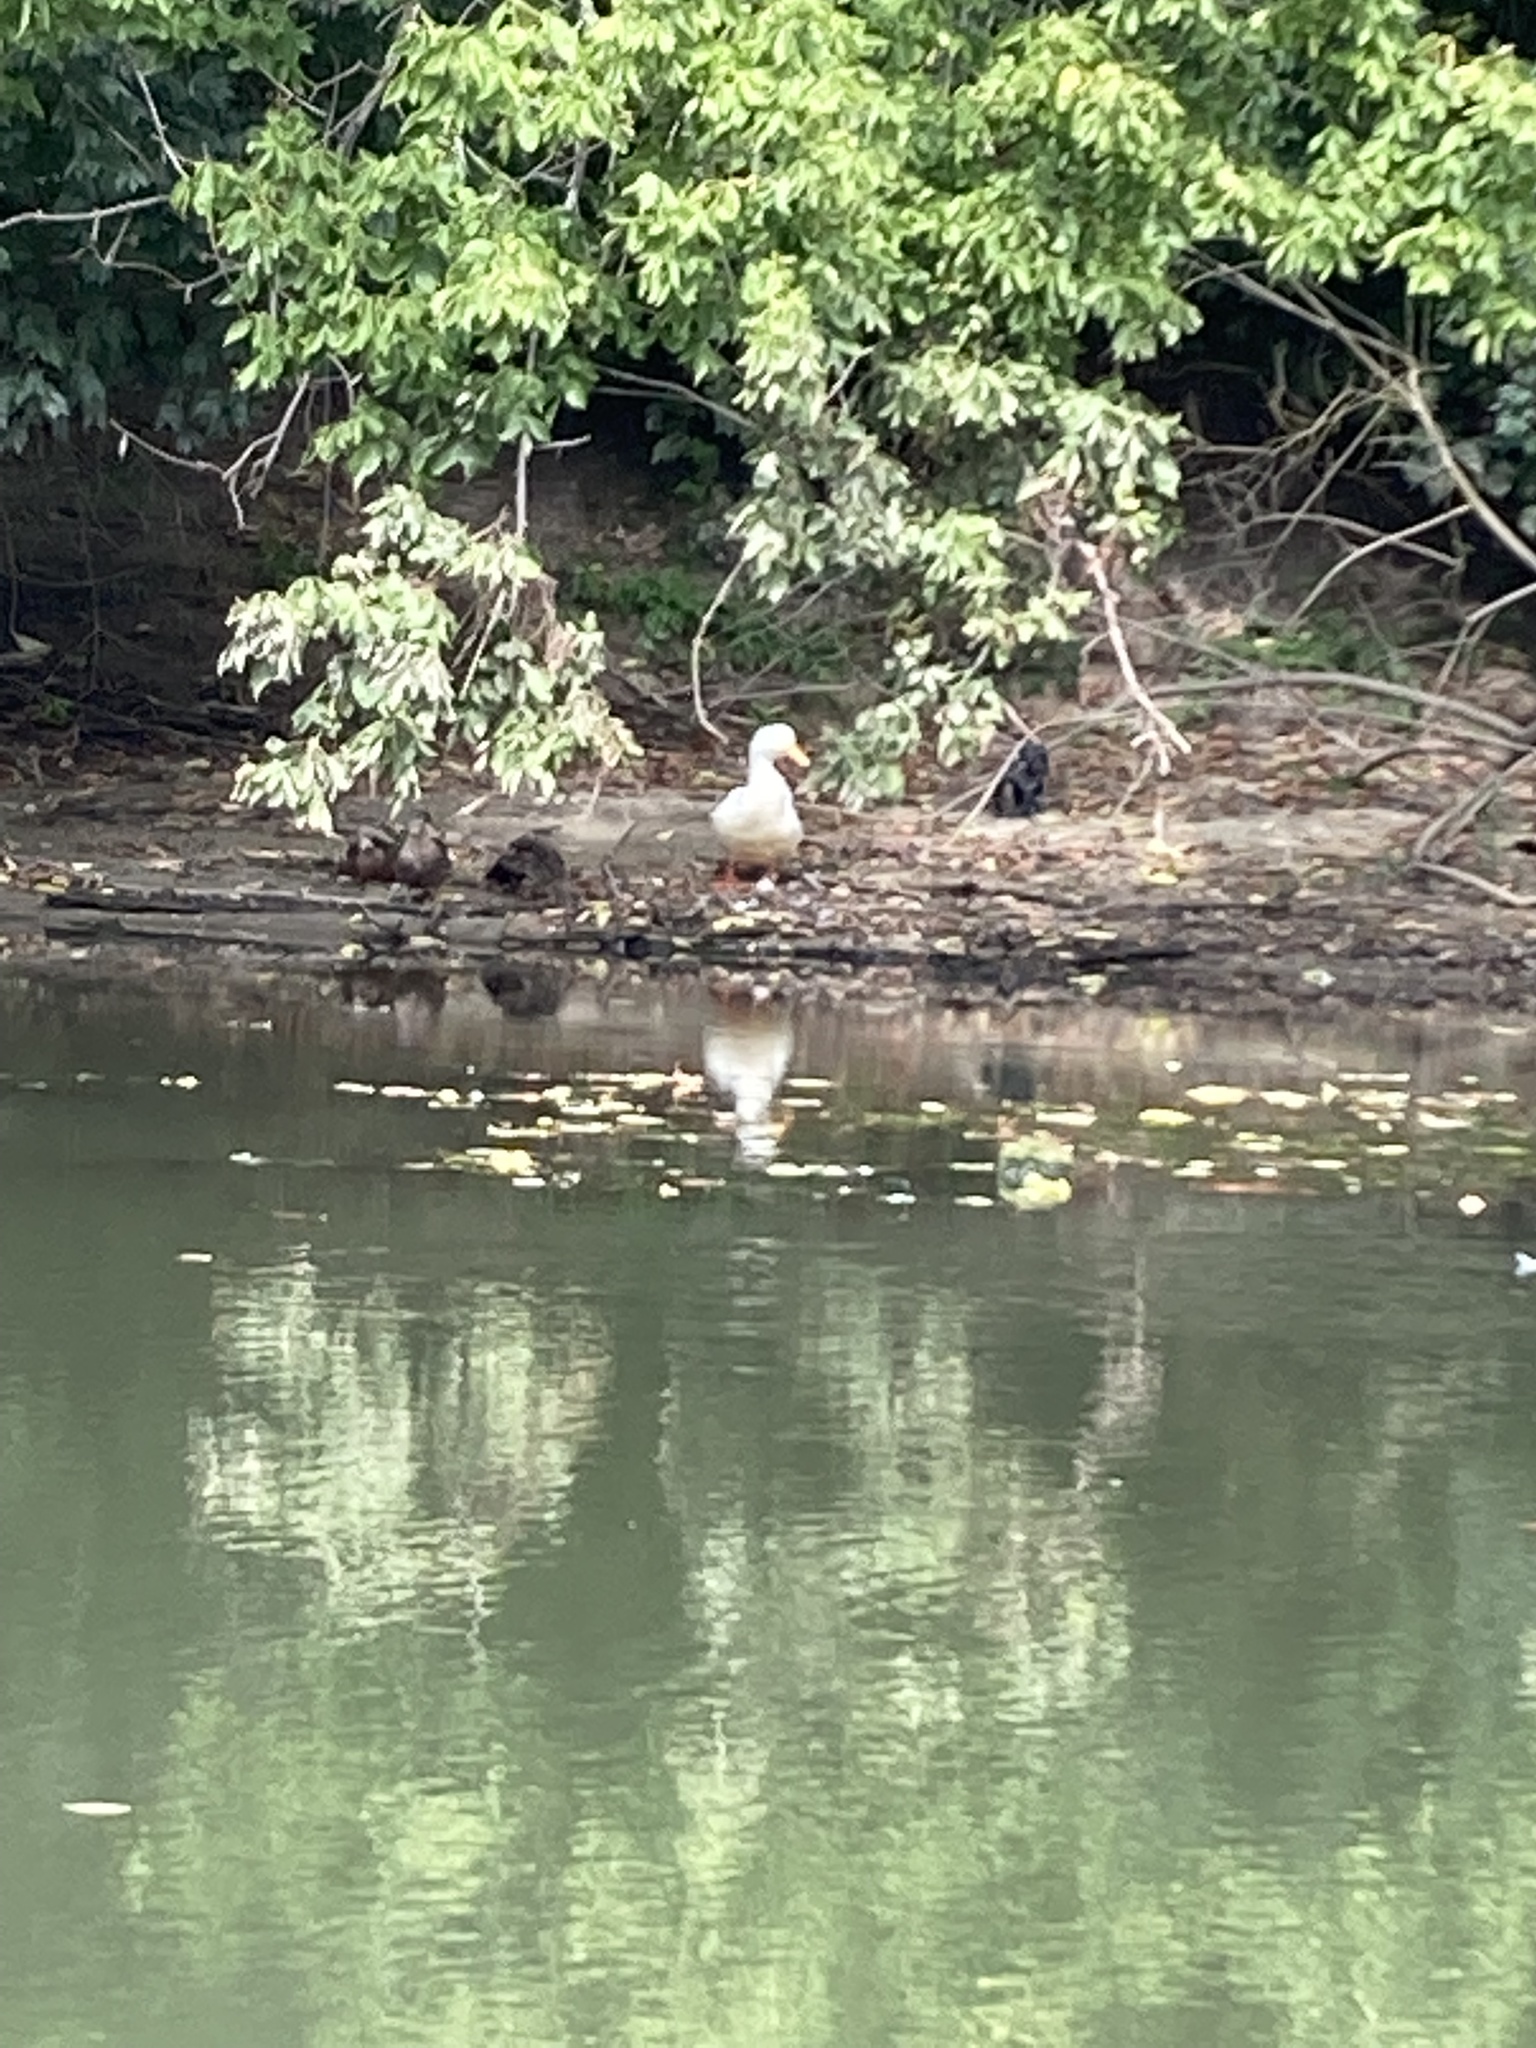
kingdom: Animalia
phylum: Chordata
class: Aves
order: Anseriformes
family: Anatidae
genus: Anas
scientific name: Anas platyrhynchos
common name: Mallard
